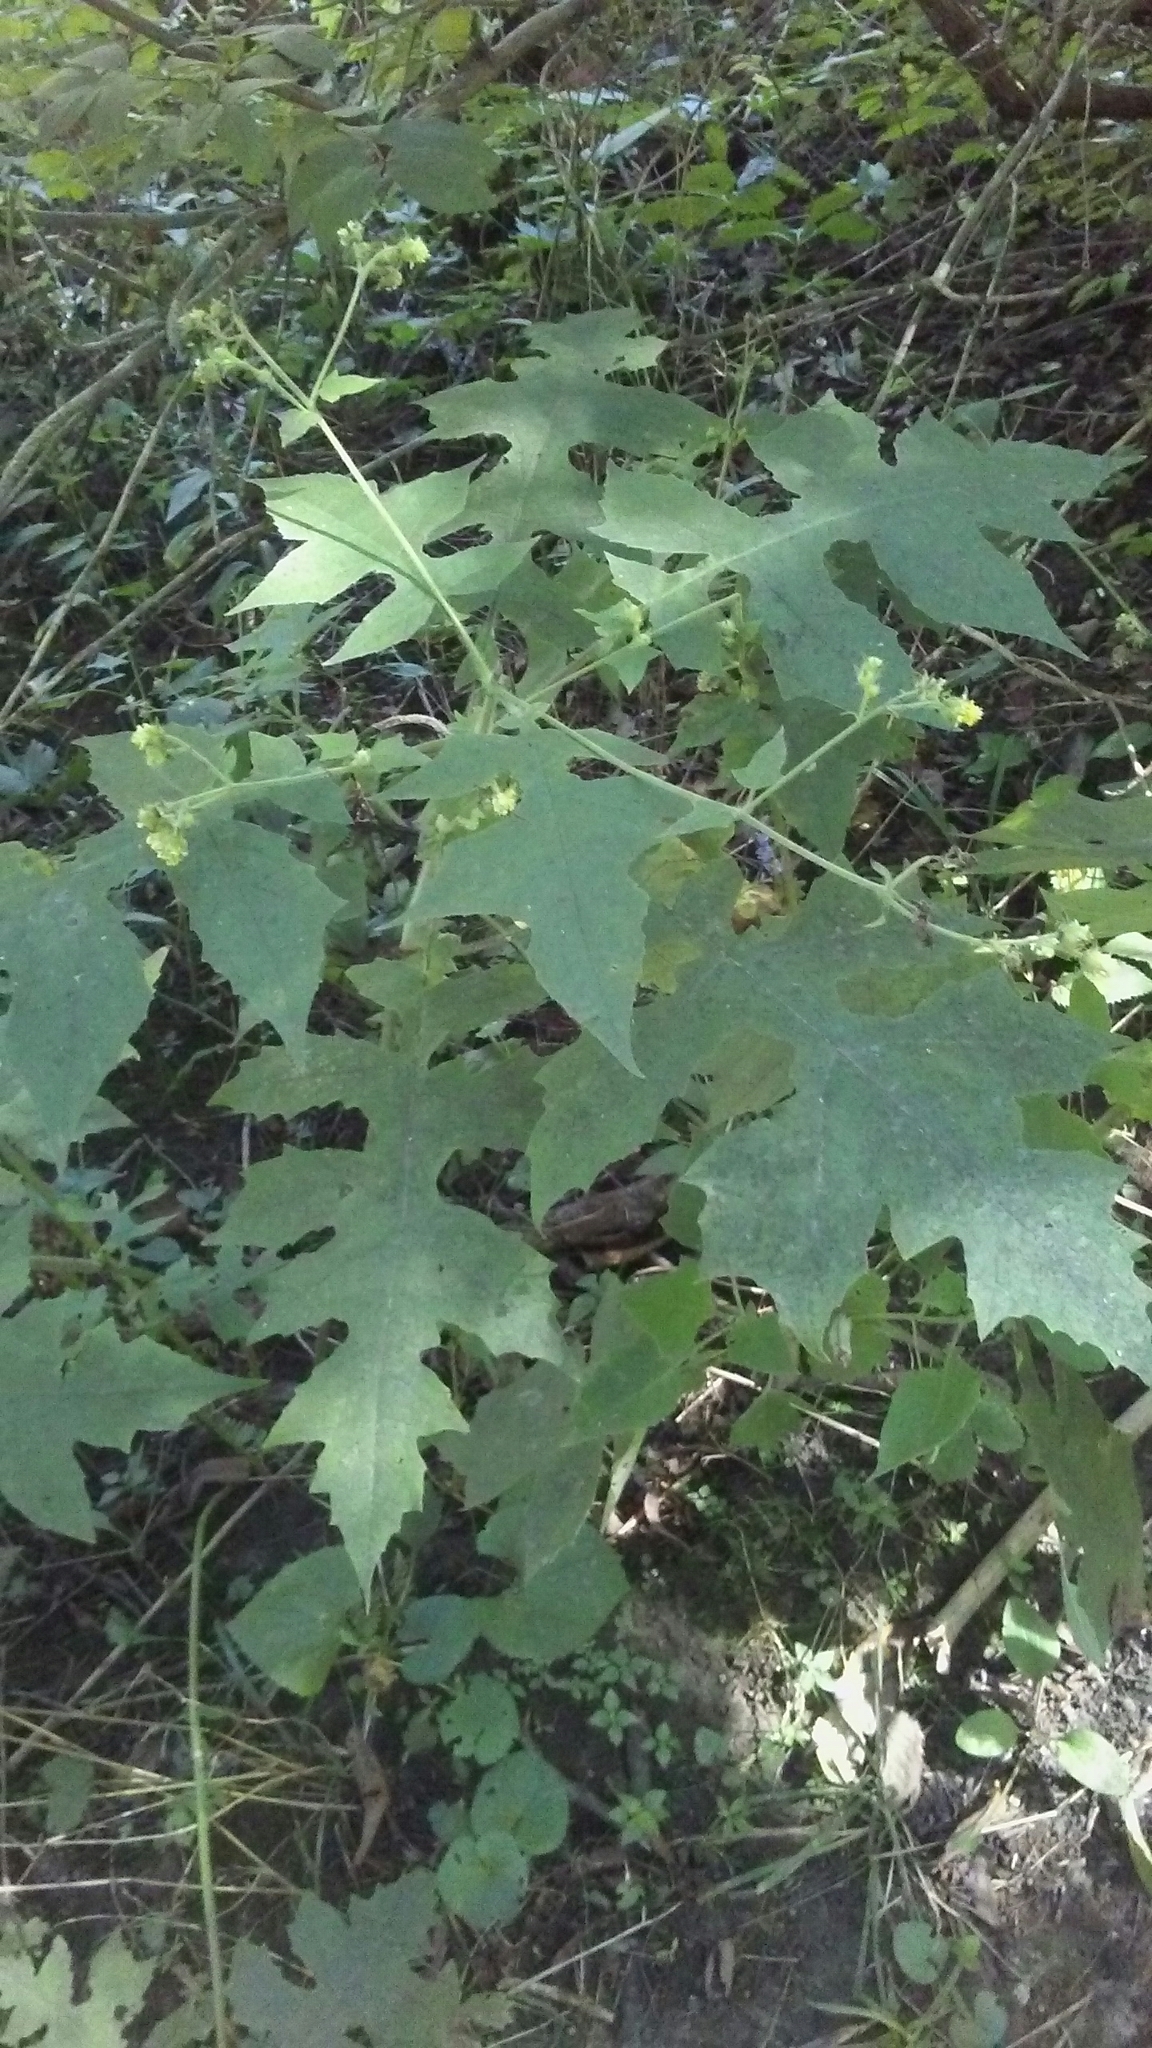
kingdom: Plantae
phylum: Tracheophyta
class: Magnoliopsida
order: Asterales
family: Asteraceae
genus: Polymnia
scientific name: Polymnia canadensis
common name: Pale-flowered leafcup
